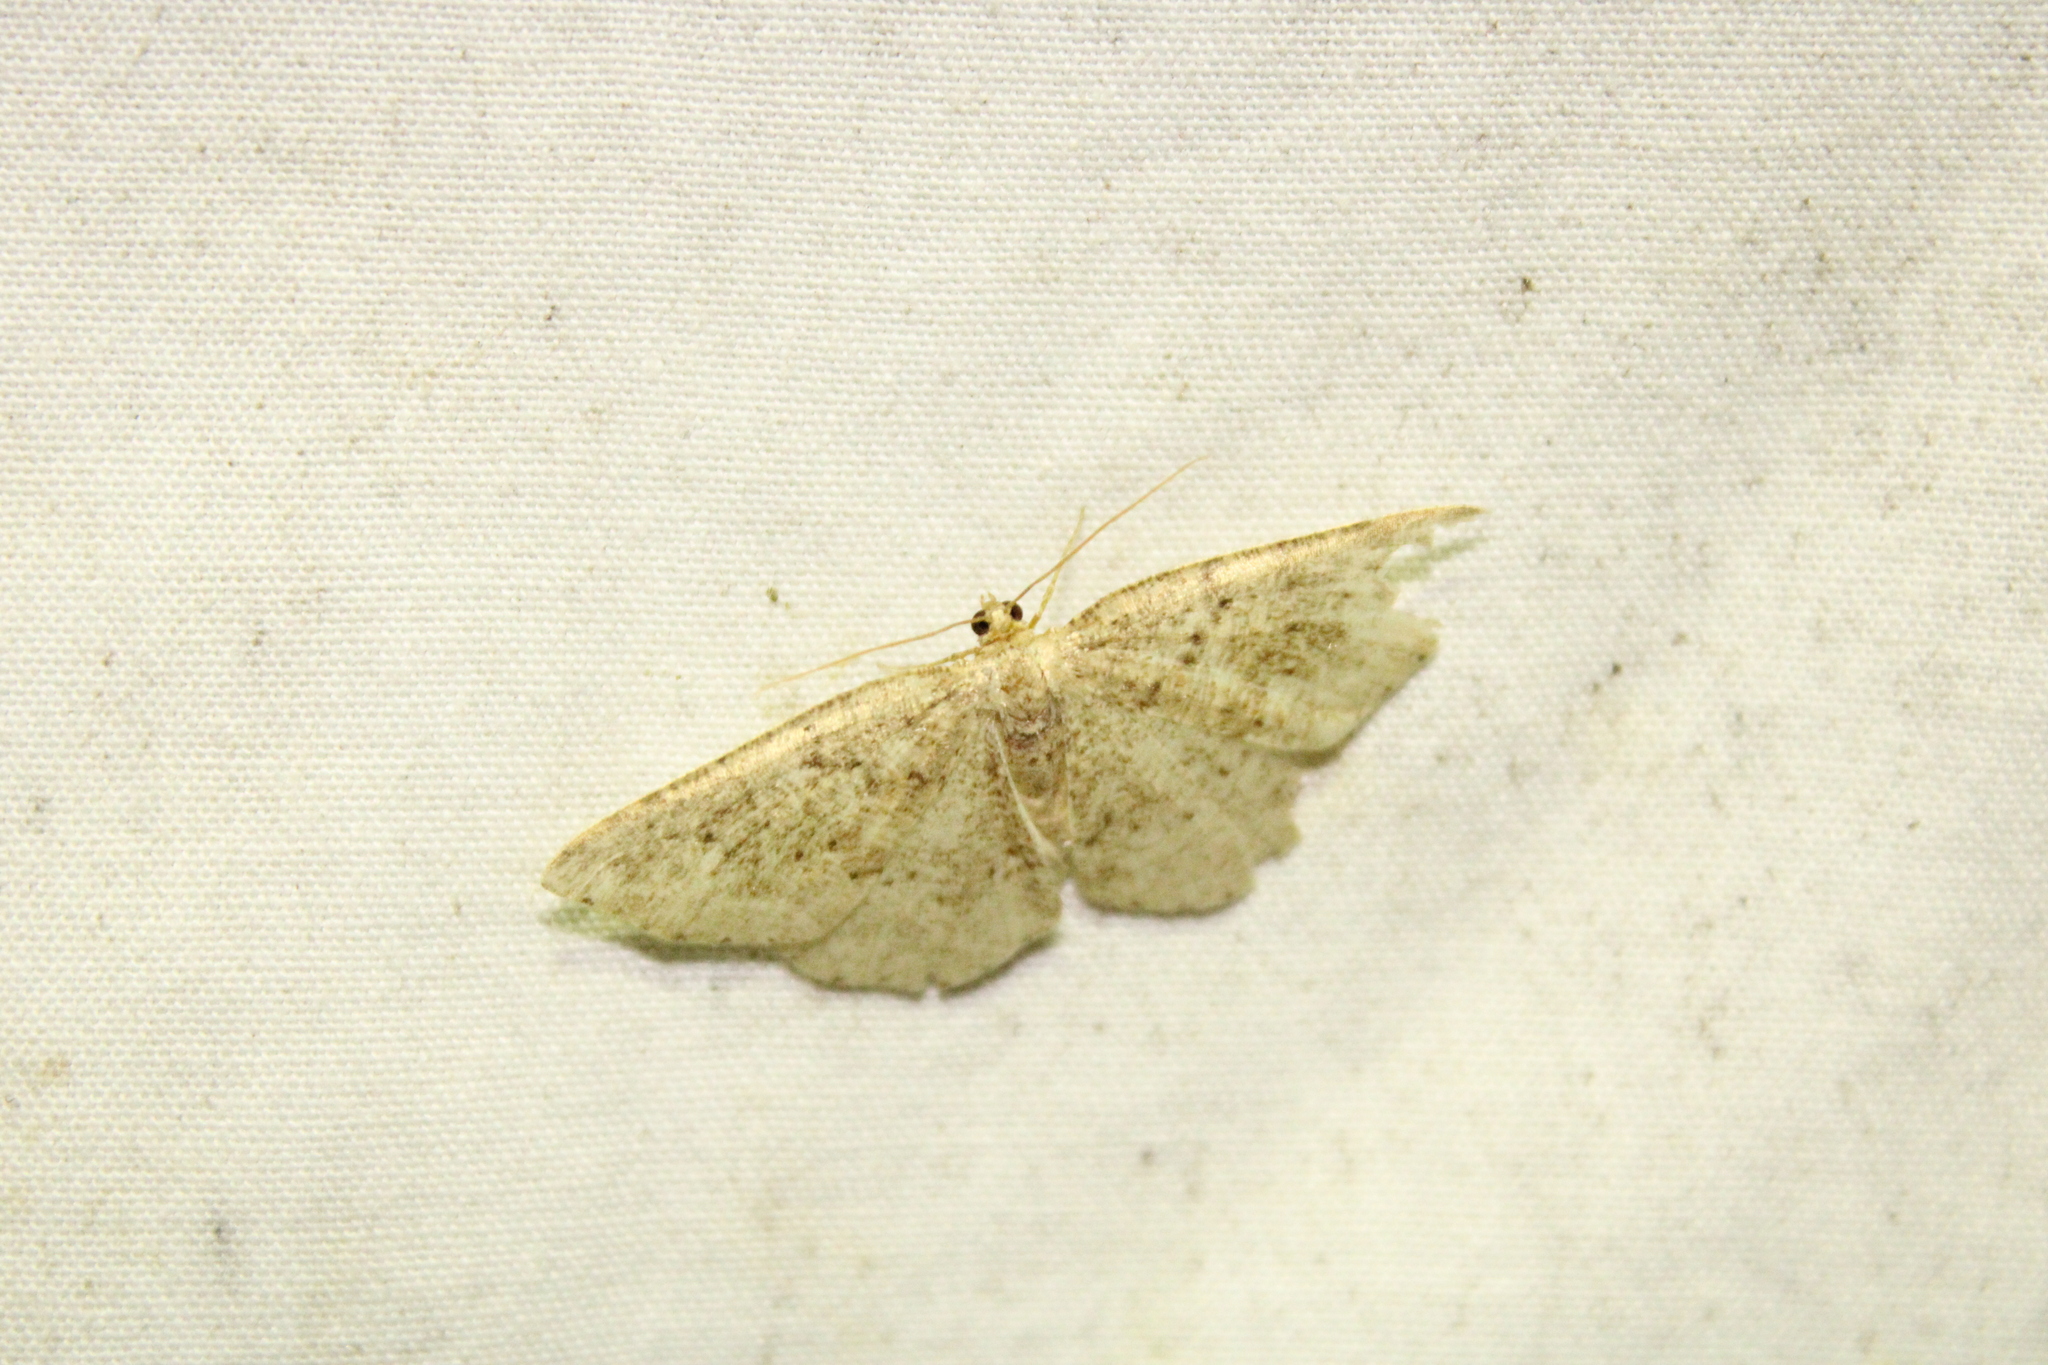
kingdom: Animalia
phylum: Arthropoda
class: Insecta
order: Lepidoptera
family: Geometridae
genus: Homochlodes
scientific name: Homochlodes fritillaria
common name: Pale homochlodes
